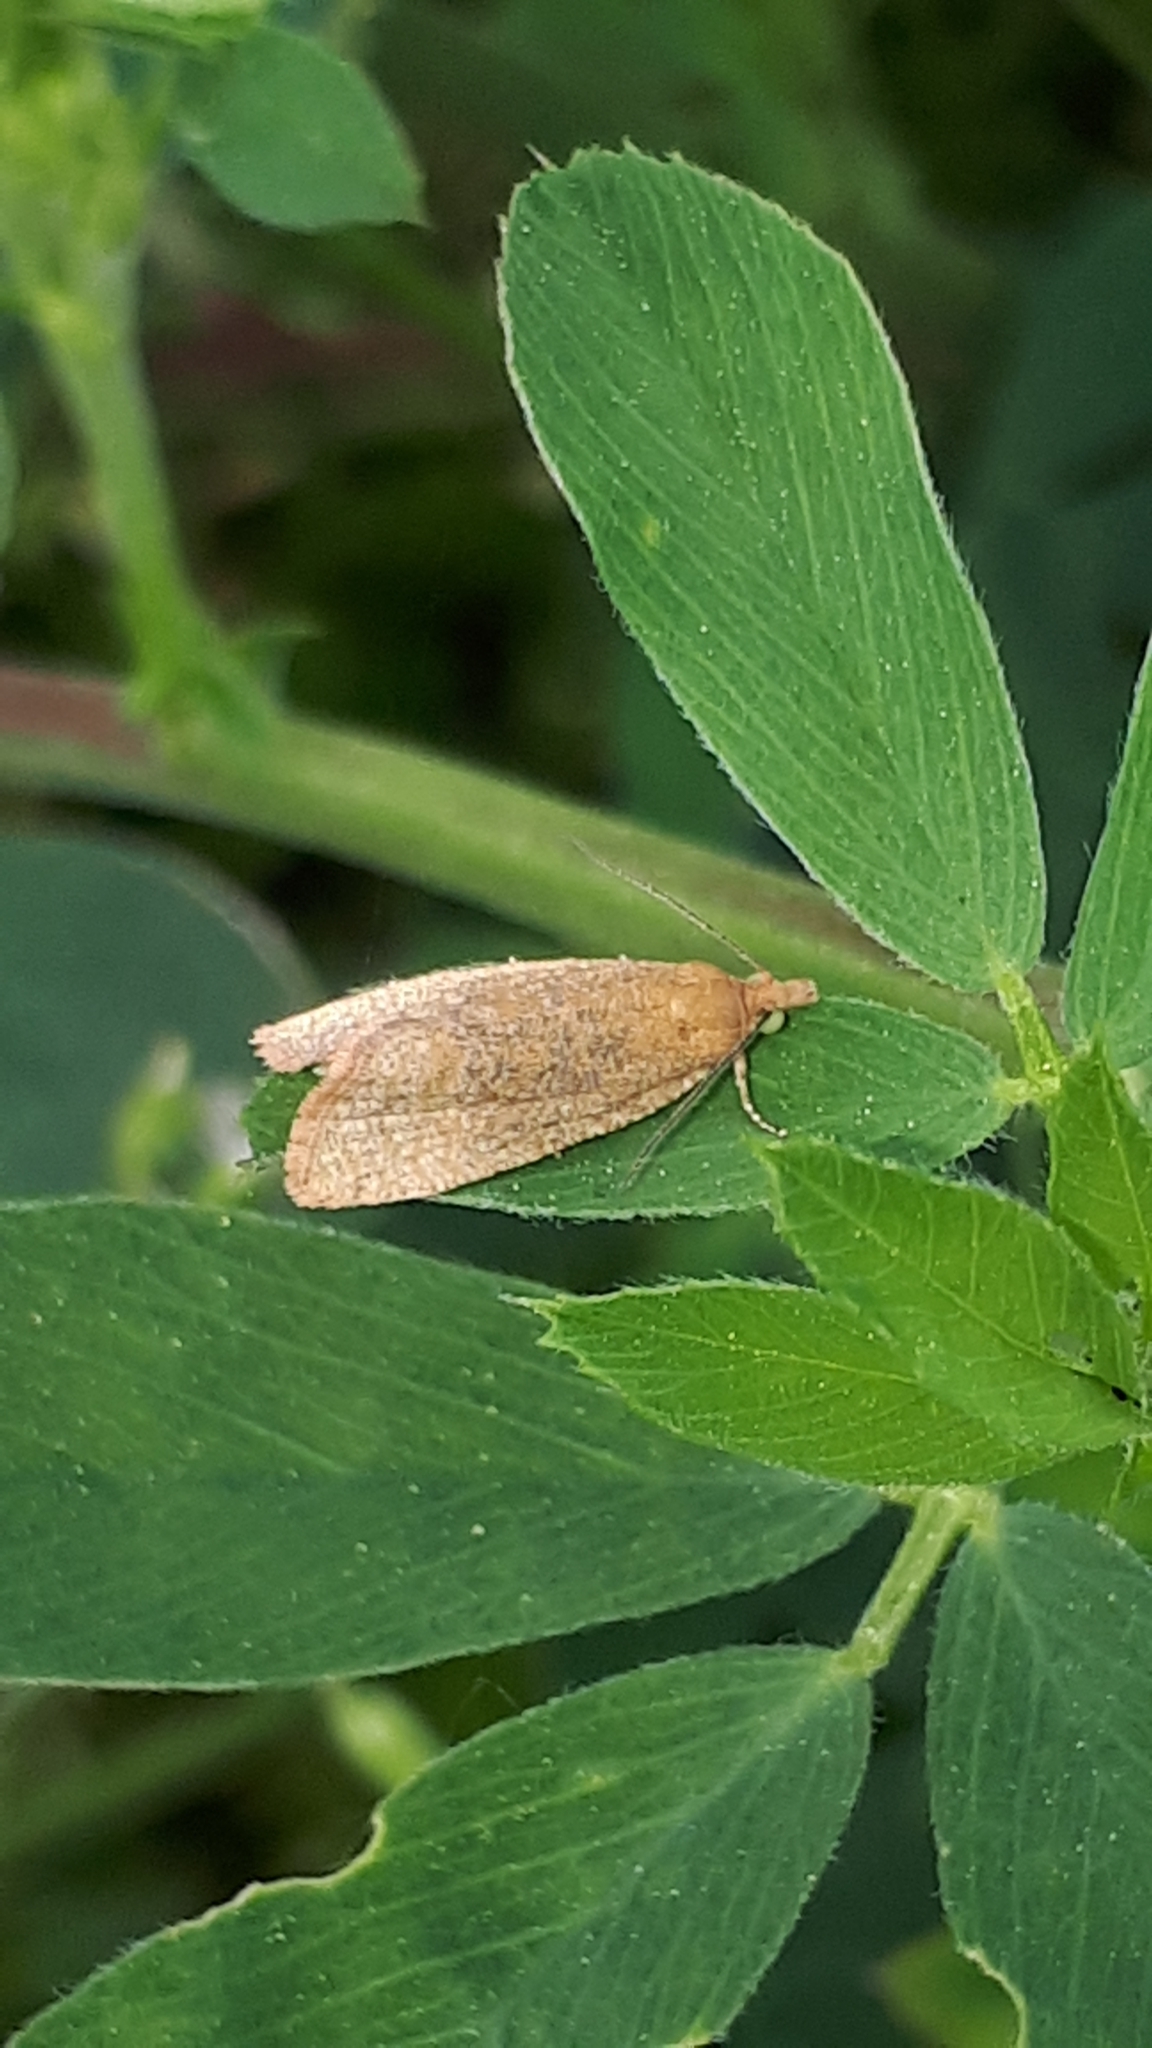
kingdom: Animalia
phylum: Arthropoda
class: Insecta
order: Lepidoptera
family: Tortricidae
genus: Celypha
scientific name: Celypha rufana
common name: Lakes marble
